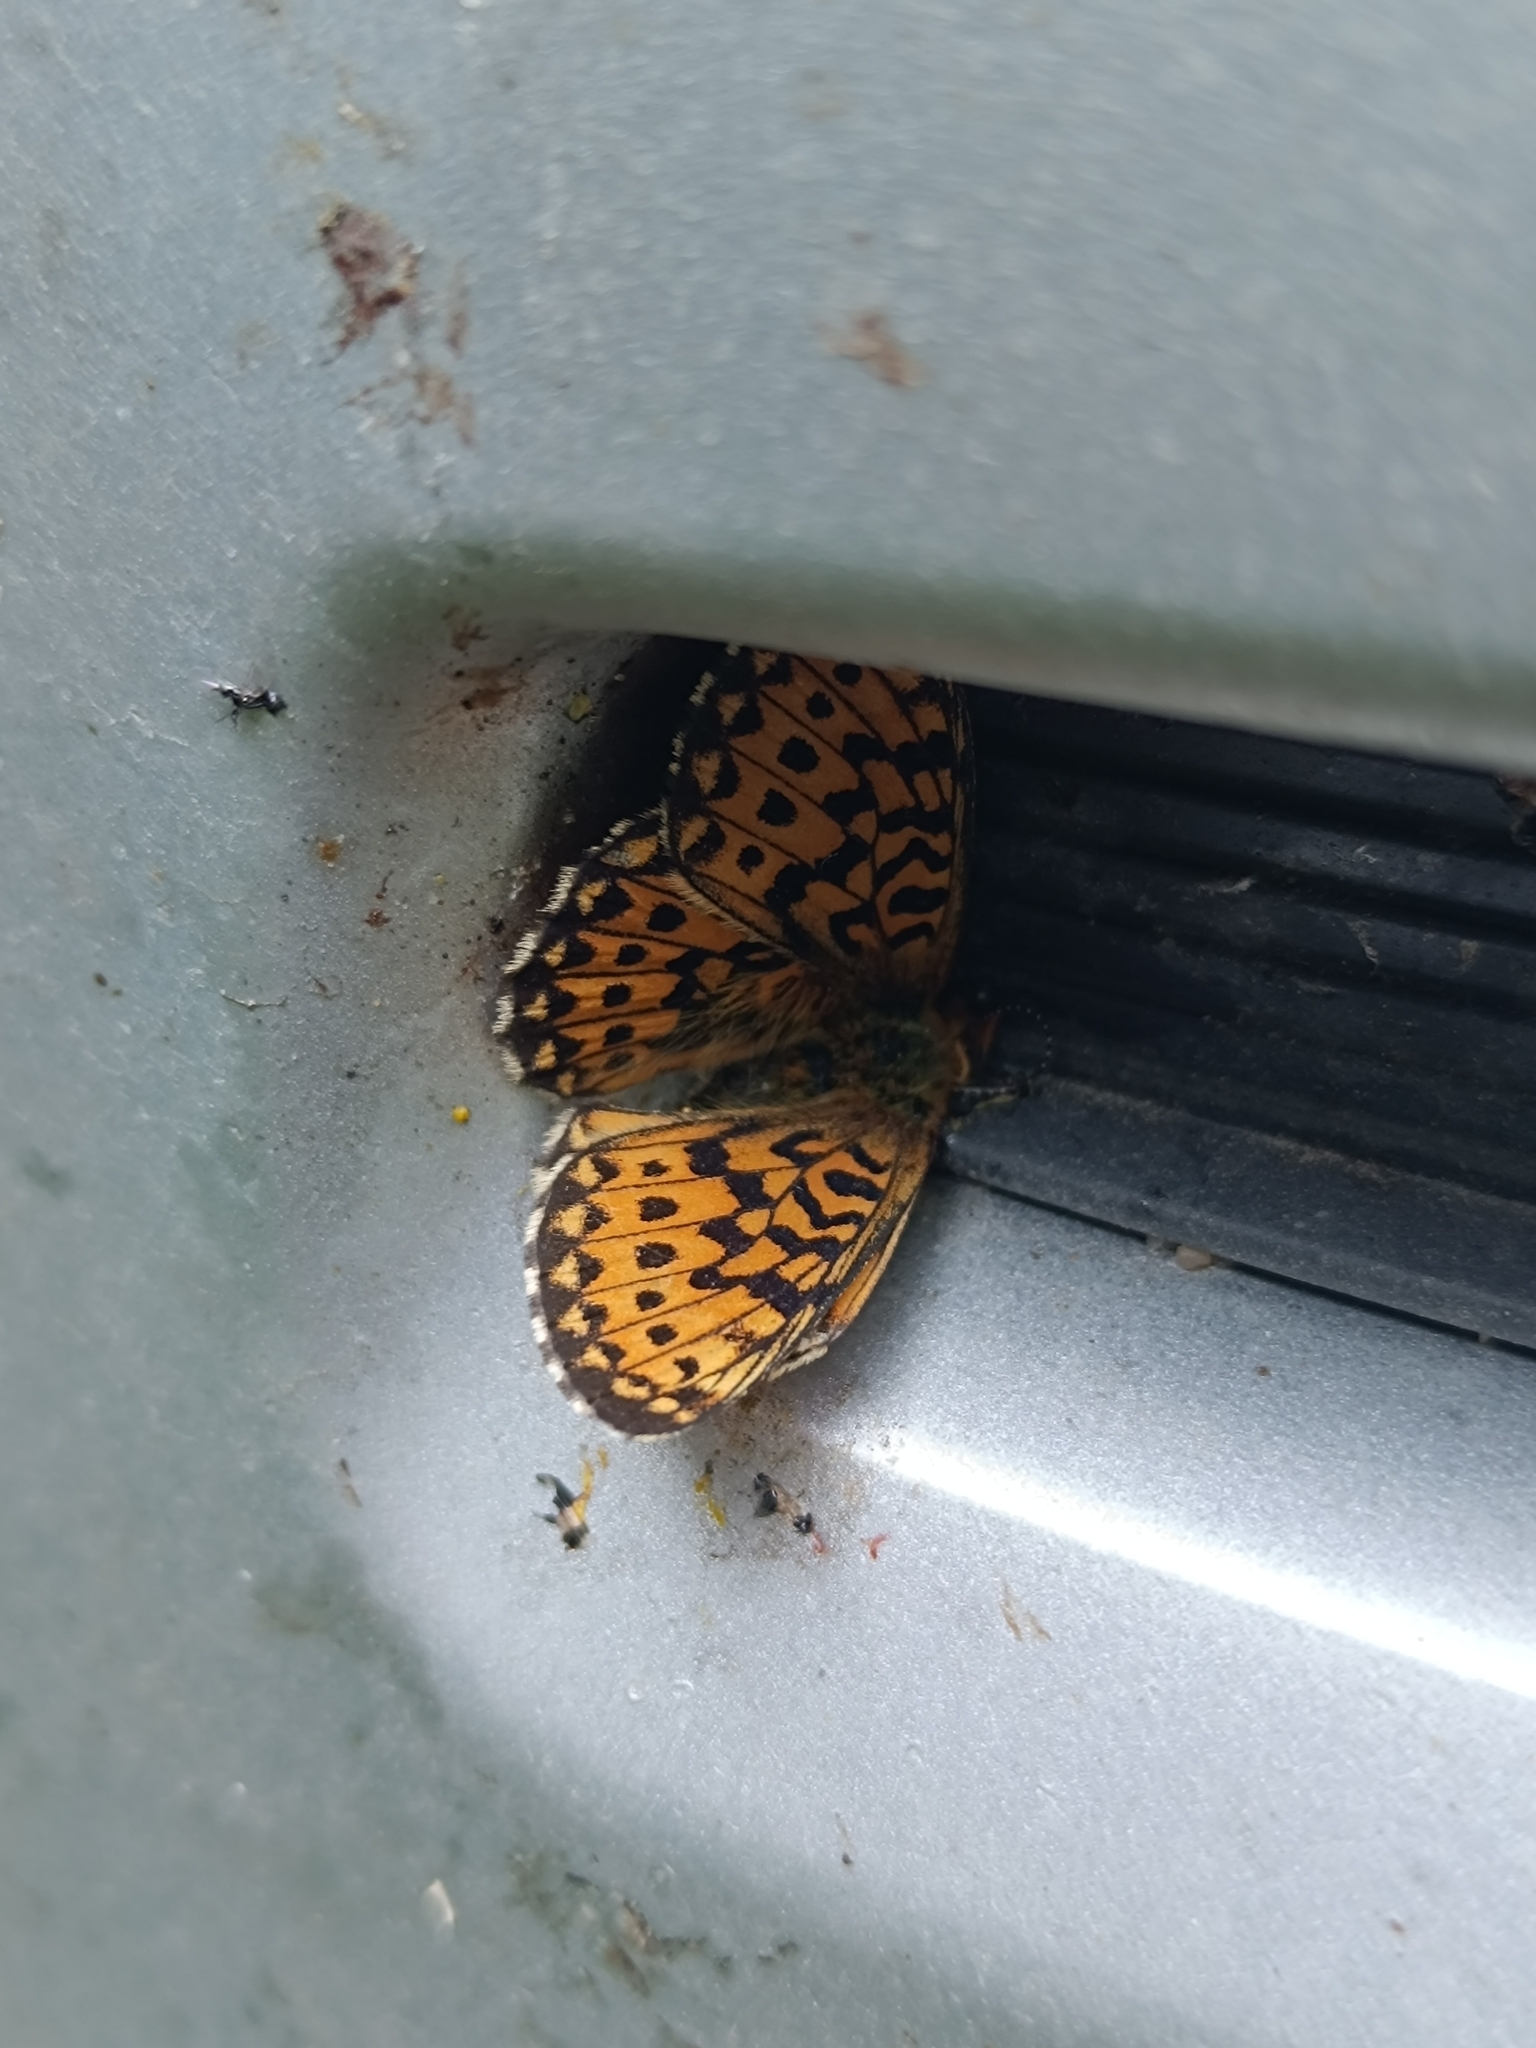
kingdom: Animalia
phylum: Arthropoda
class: Insecta
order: Lepidoptera
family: Nymphalidae
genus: Clossiana
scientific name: Clossiana euphrosyne
